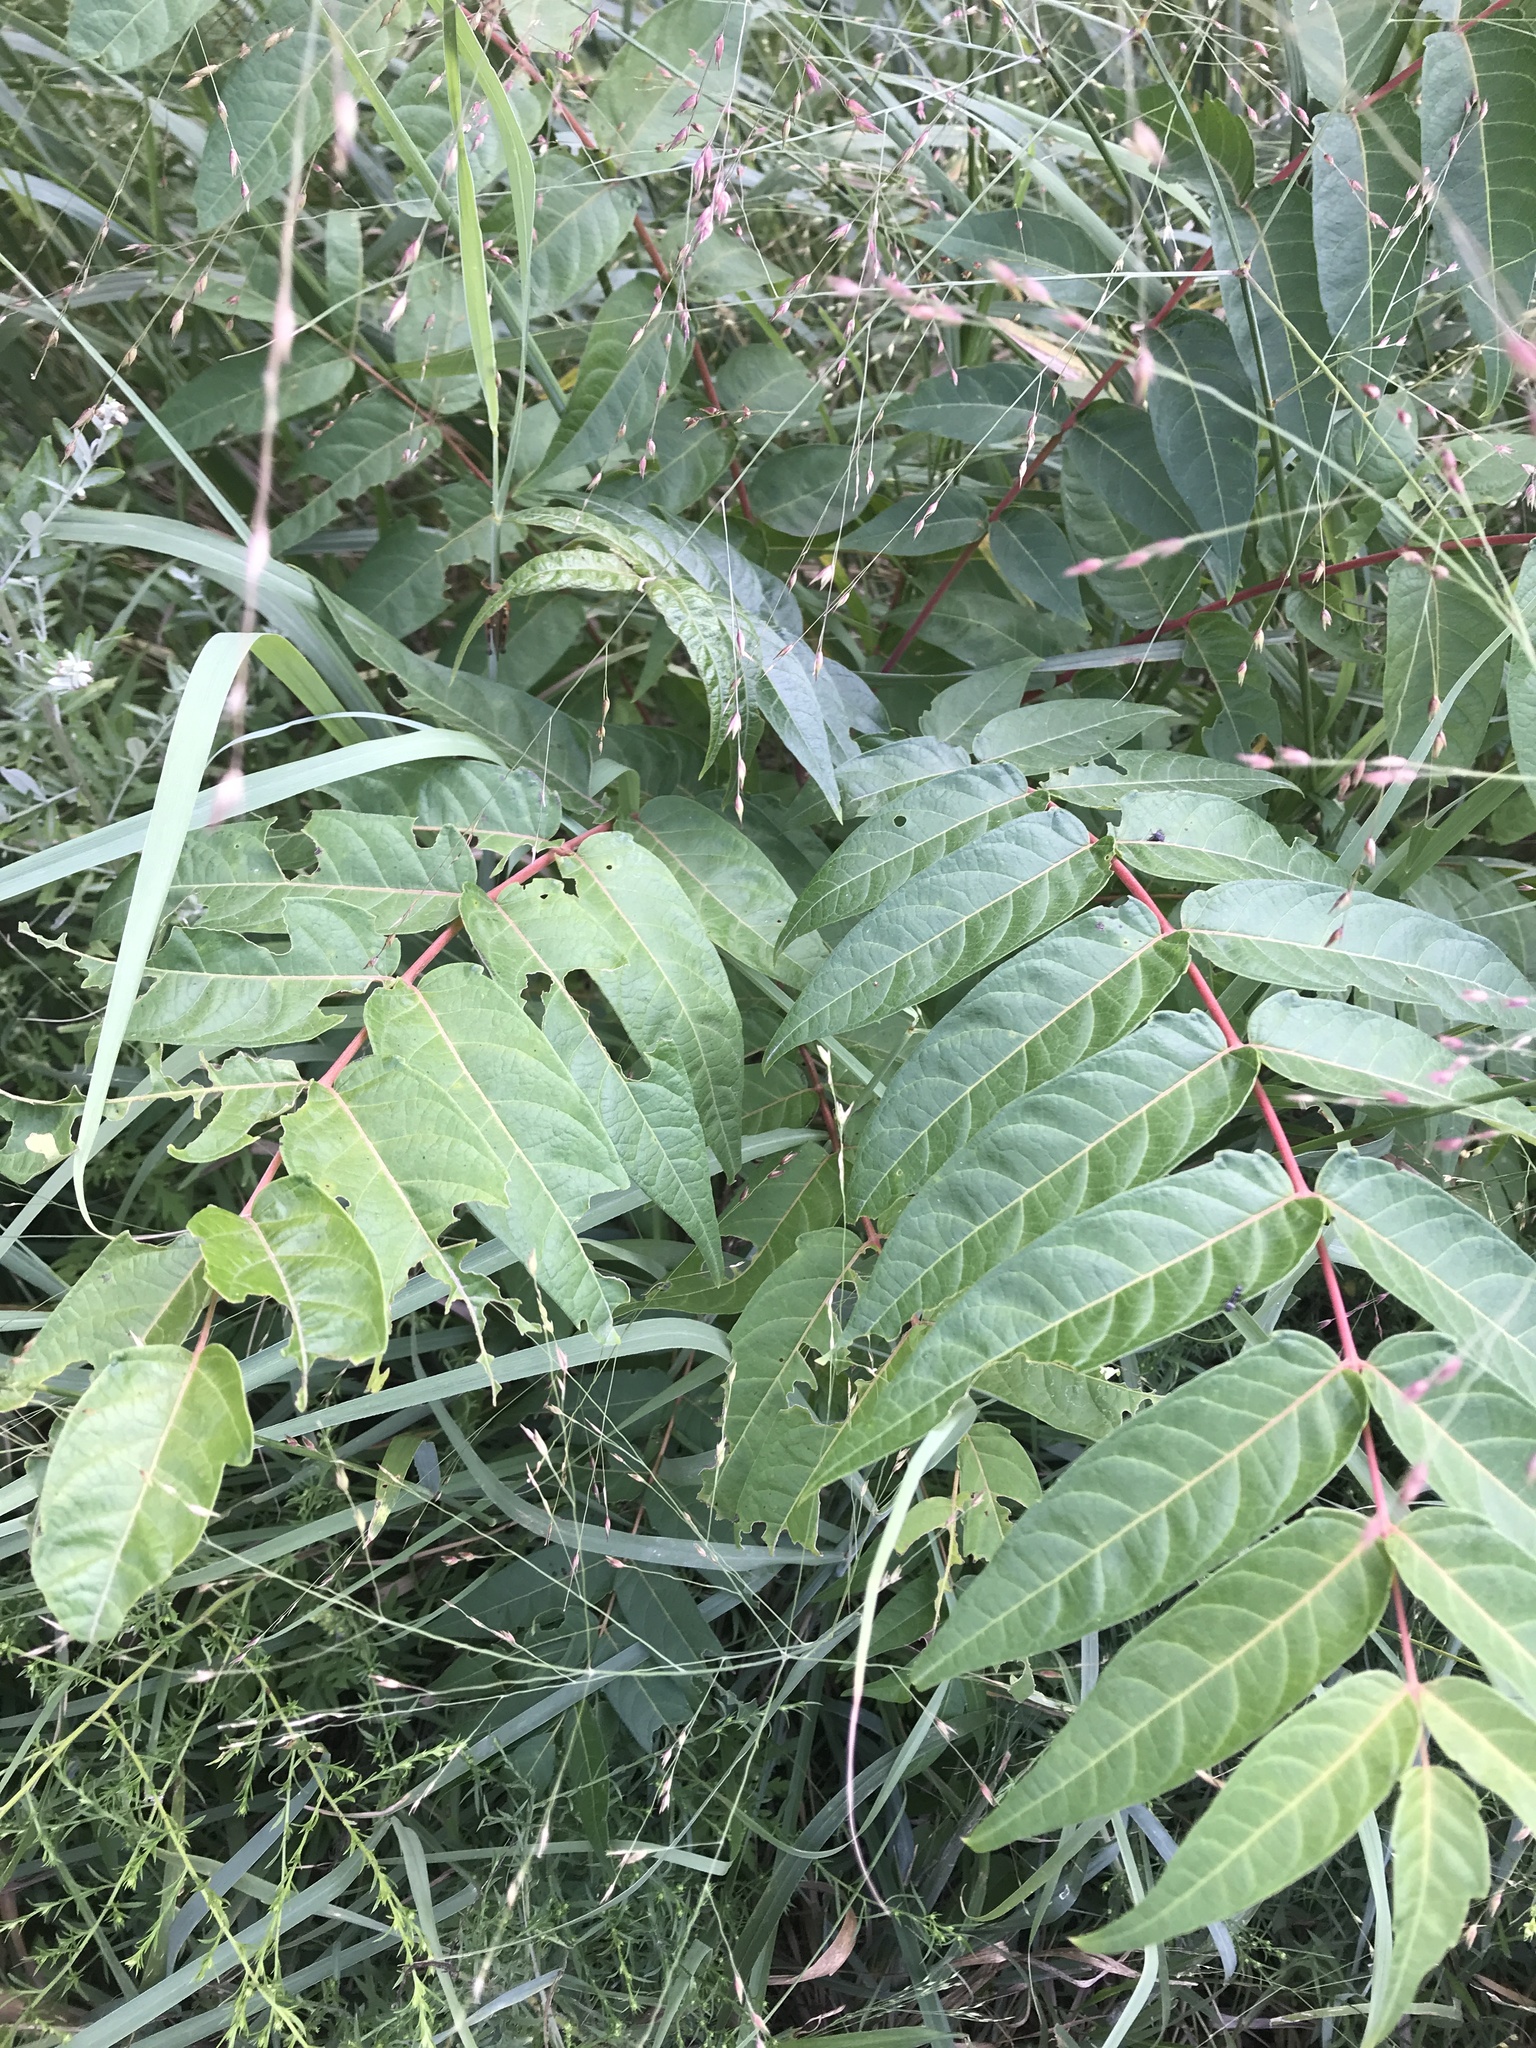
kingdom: Plantae
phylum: Tracheophyta
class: Magnoliopsida
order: Sapindales
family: Simaroubaceae
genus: Ailanthus
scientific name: Ailanthus altissima
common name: Tree-of-heaven
